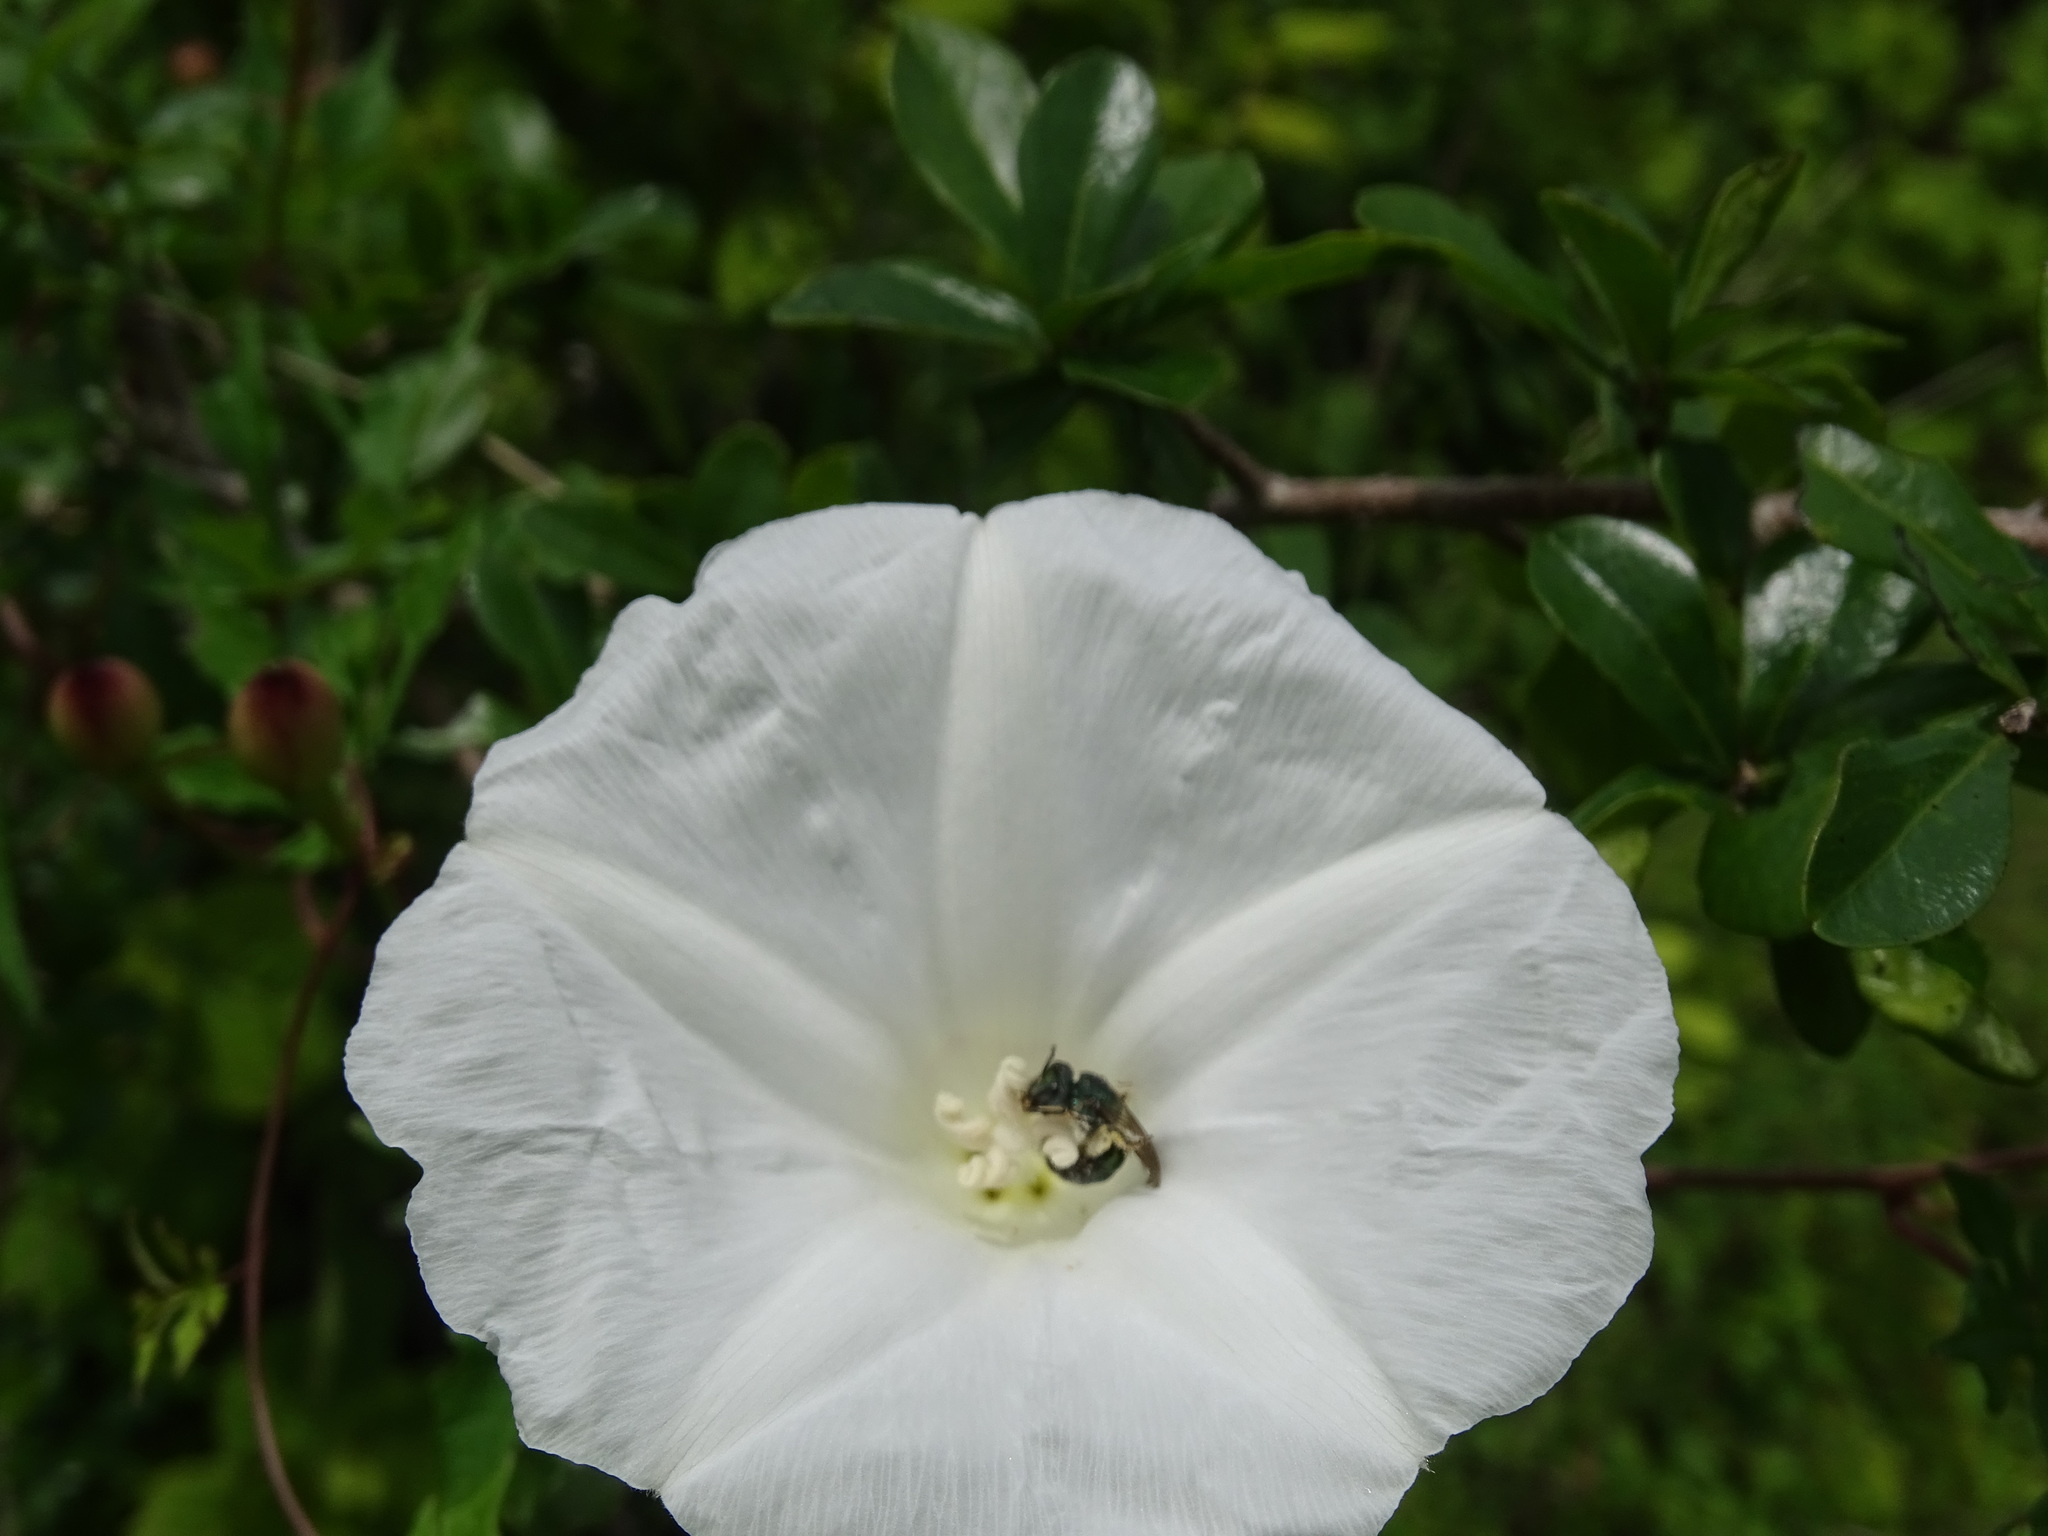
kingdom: Plantae
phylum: Tracheophyta
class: Magnoliopsida
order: Solanales
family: Convolvulaceae
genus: Operculina
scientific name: Operculina pinnatifida
